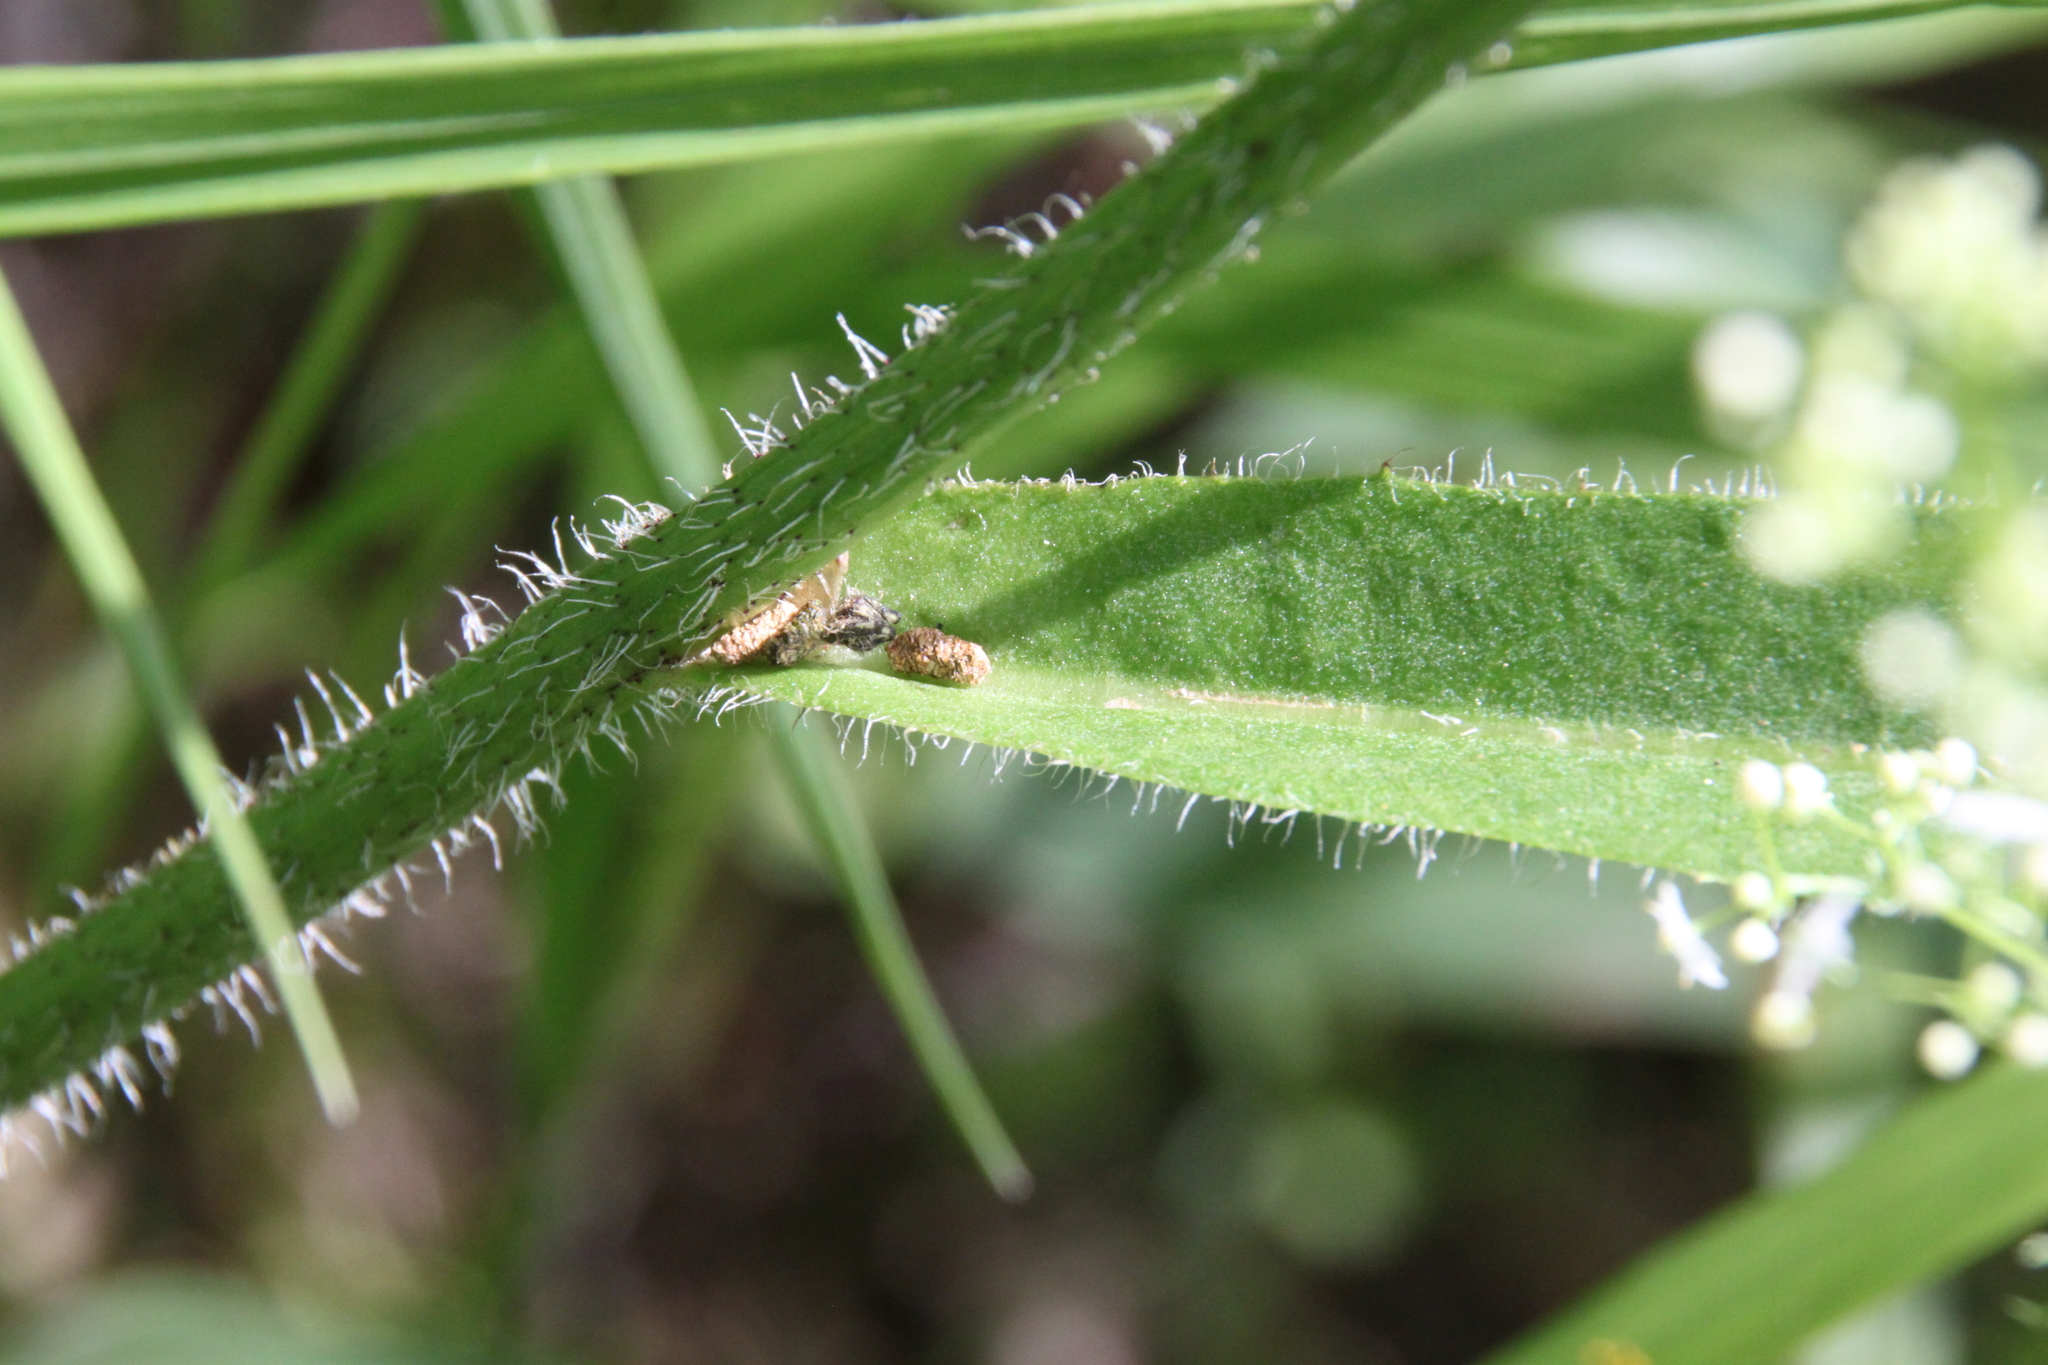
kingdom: Plantae
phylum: Tracheophyta
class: Magnoliopsida
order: Asterales
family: Asteraceae
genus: Trommsdorffia
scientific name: Trommsdorffia maculata
